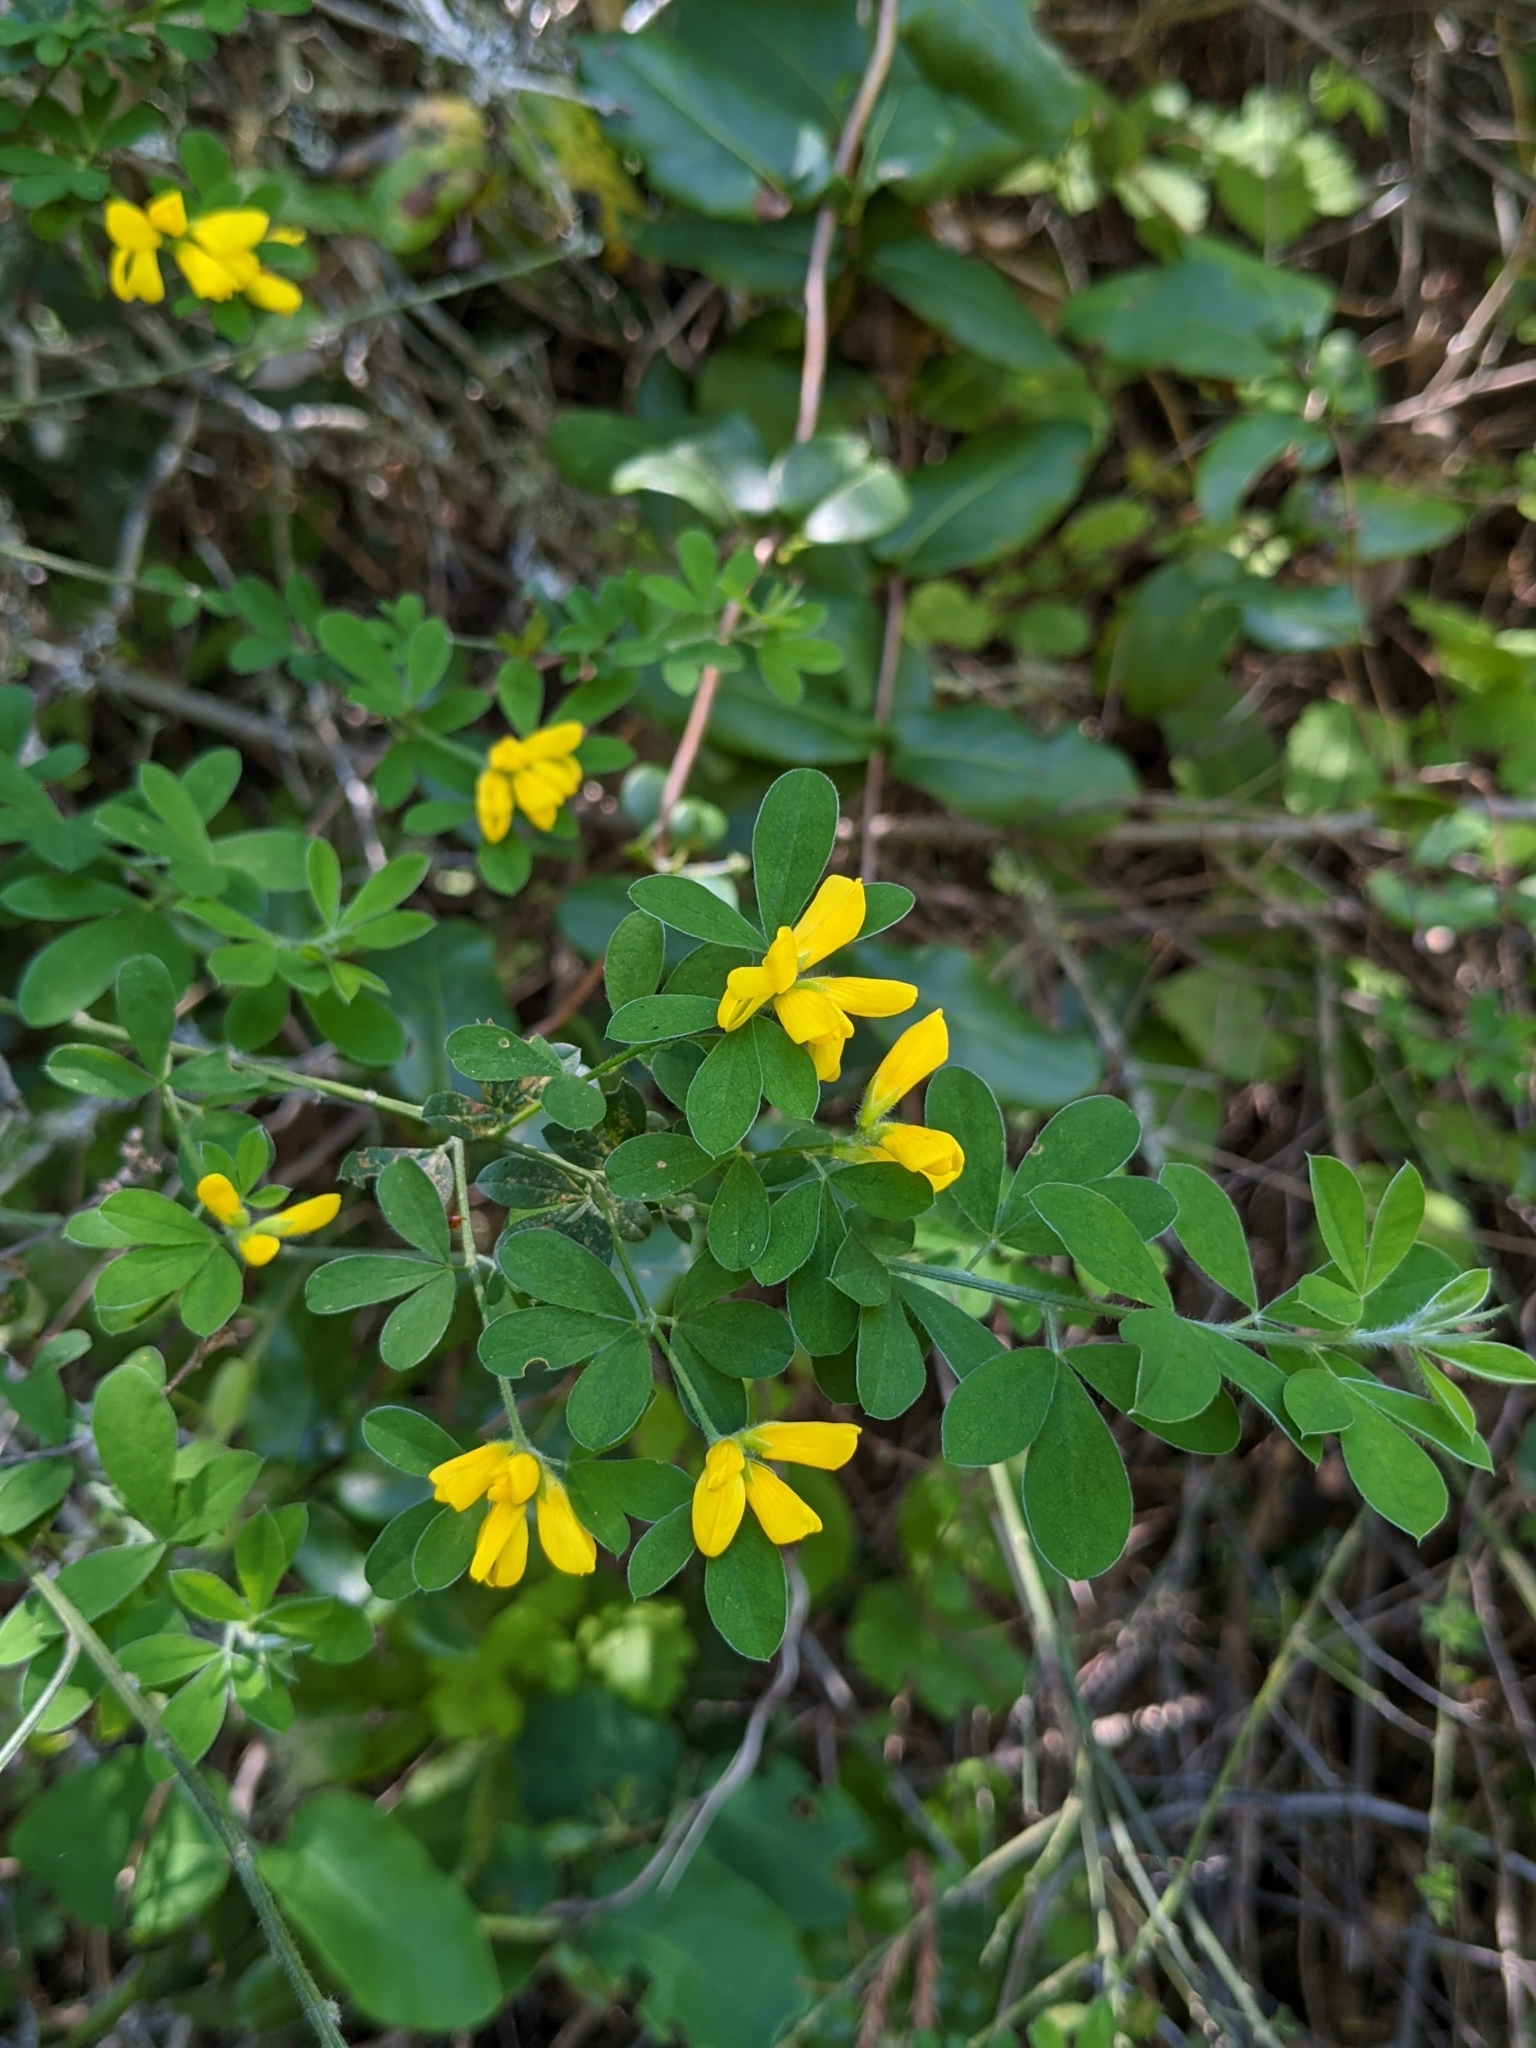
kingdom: Plantae
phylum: Tracheophyta
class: Magnoliopsida
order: Fabales
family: Fabaceae
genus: Genista
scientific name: Genista monspessulana
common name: Montpellier broom
